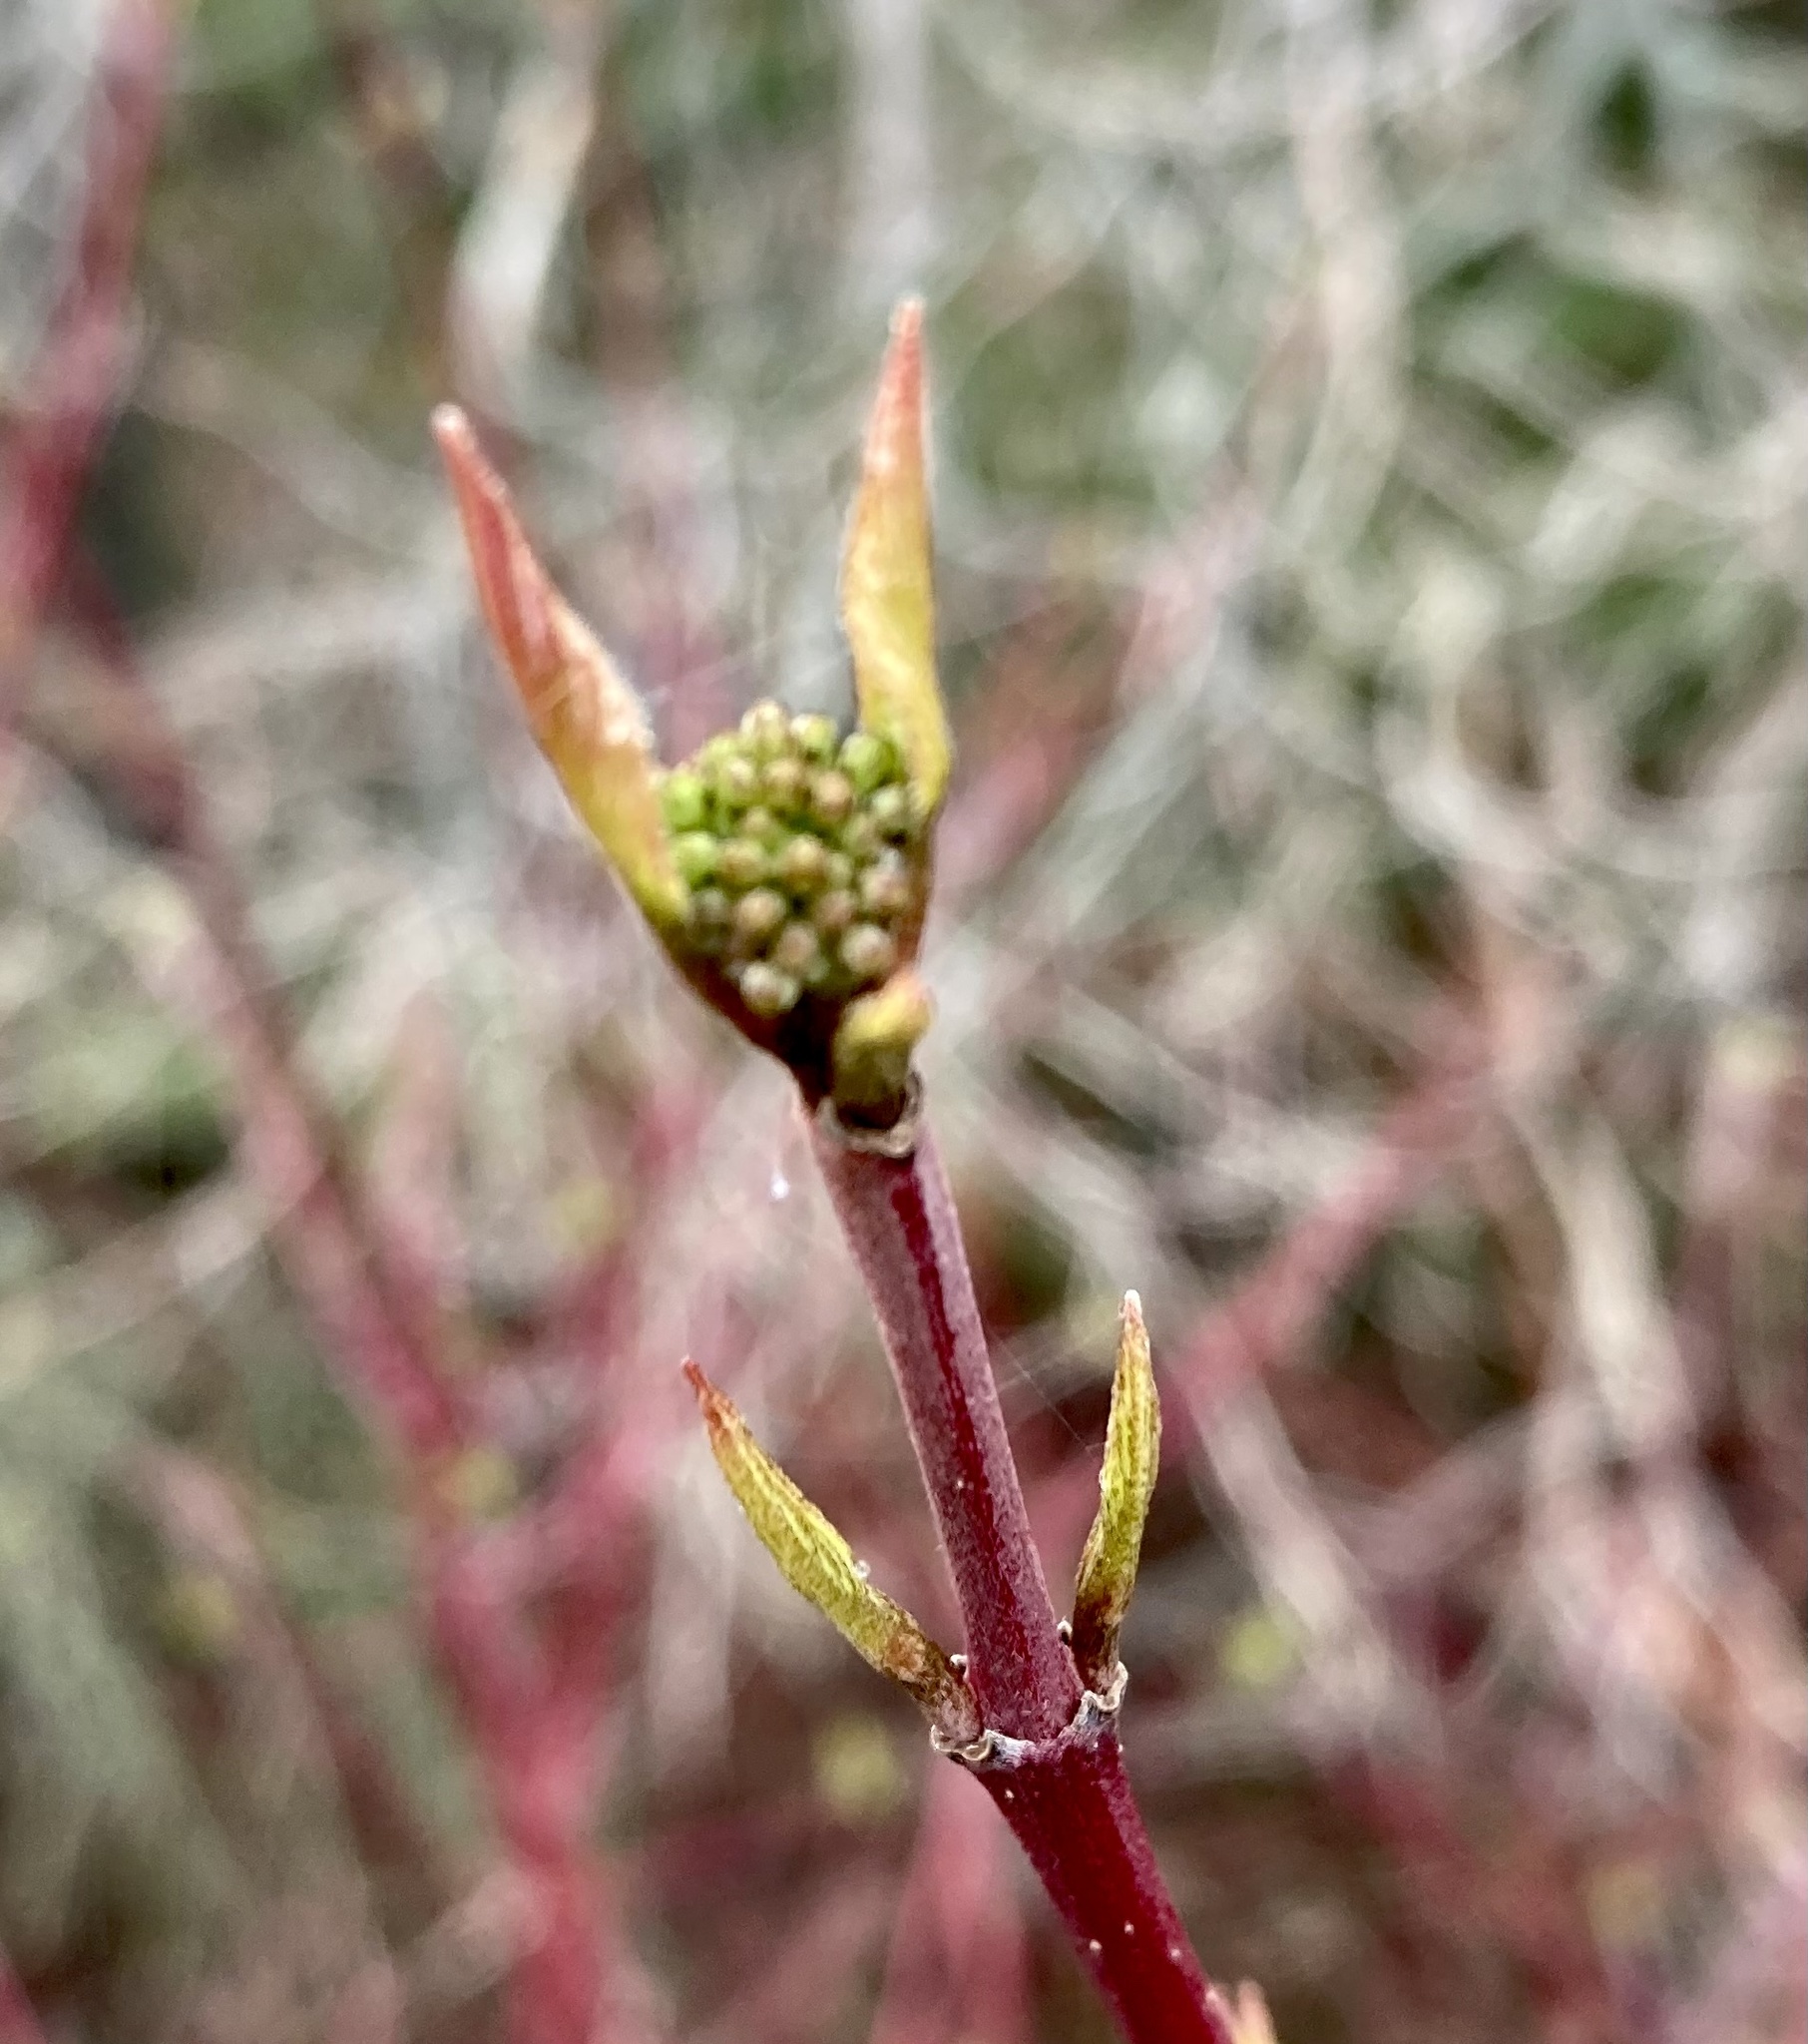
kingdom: Plantae
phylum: Tracheophyta
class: Magnoliopsida
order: Cornales
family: Cornaceae
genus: Cornus
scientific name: Cornus sericea
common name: Red-osier dogwood
